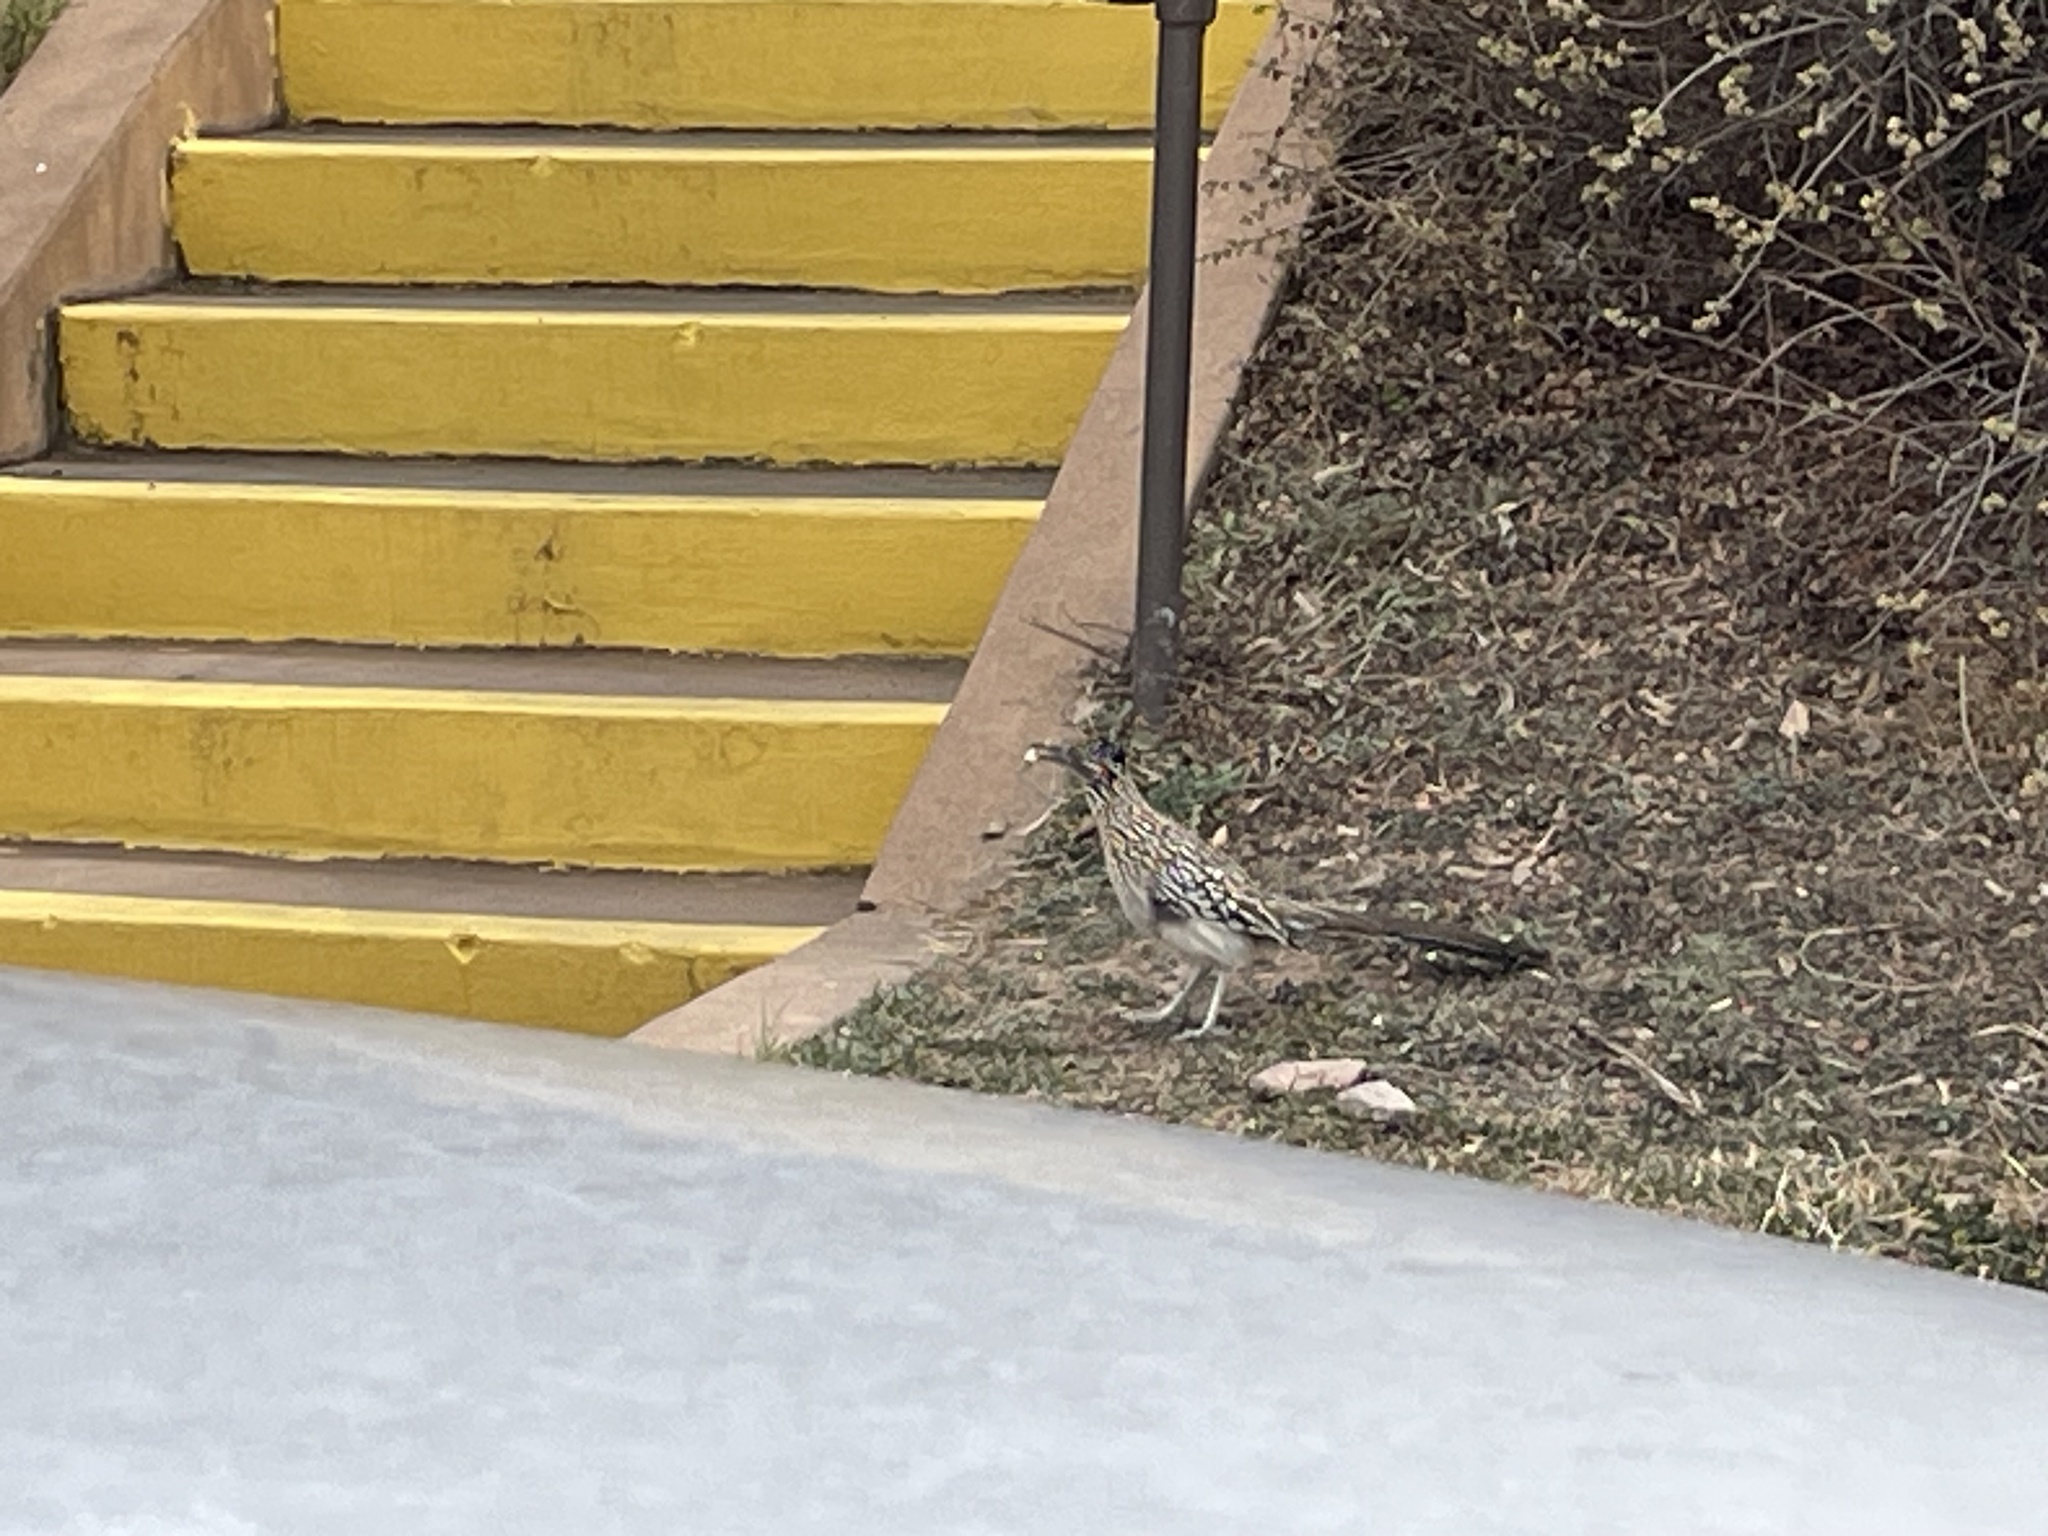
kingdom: Animalia
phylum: Chordata
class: Aves
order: Cuculiformes
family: Cuculidae
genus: Geococcyx
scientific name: Geococcyx californianus
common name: Greater roadrunner
